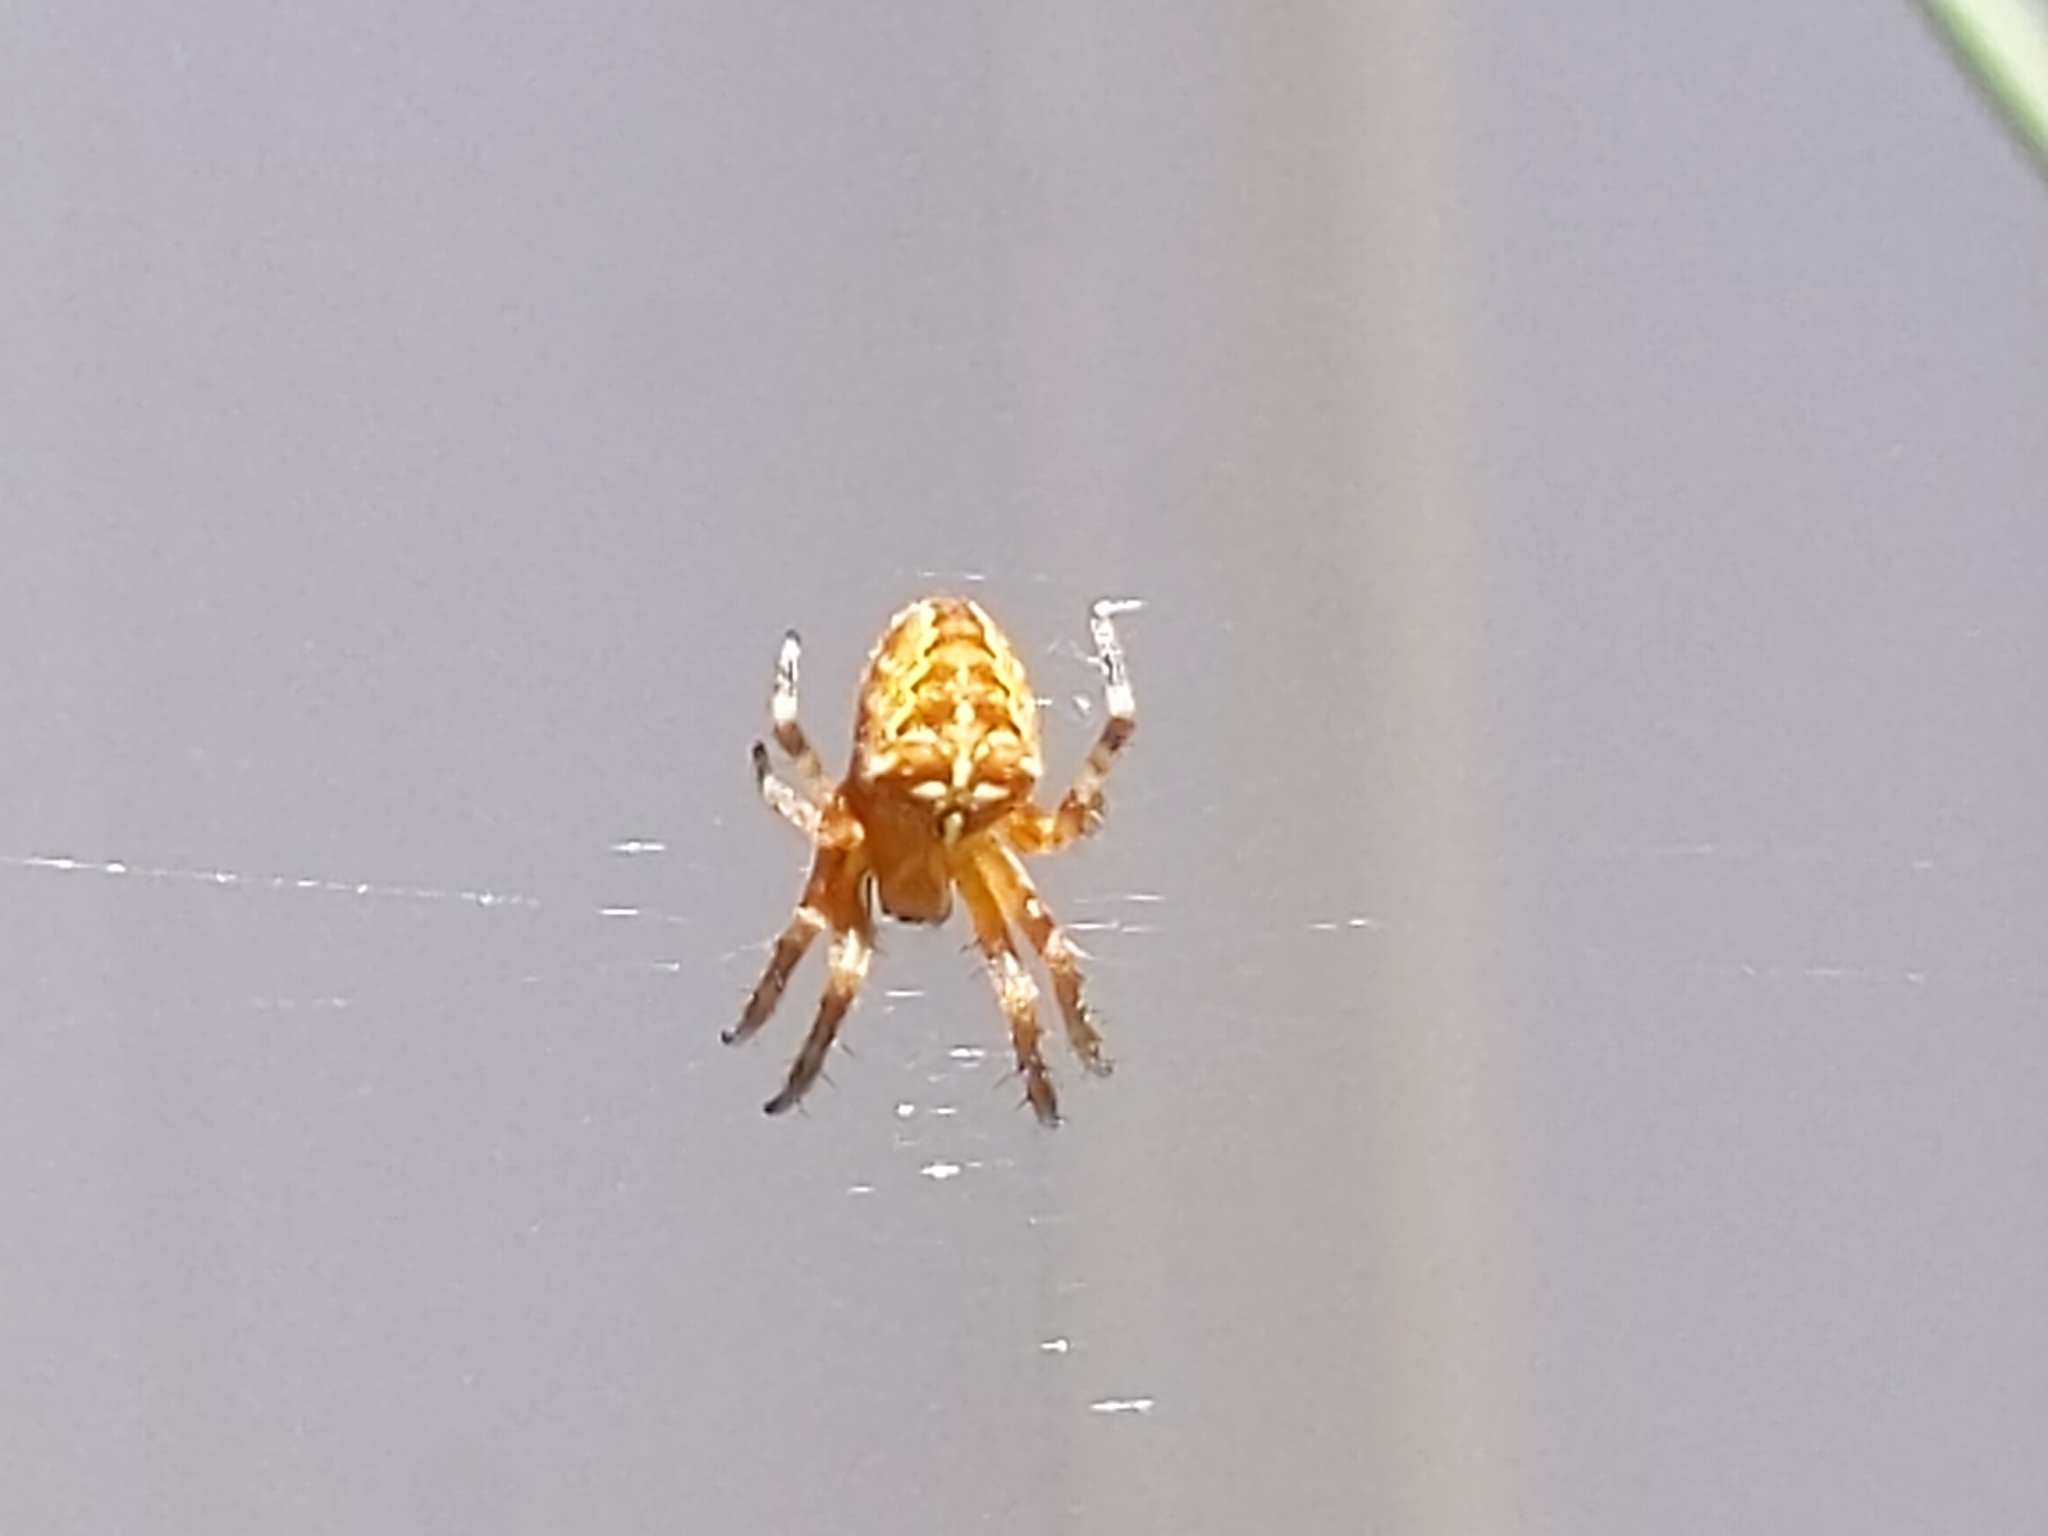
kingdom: Animalia
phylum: Arthropoda
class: Arachnida
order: Araneae
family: Araneidae
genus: Araneus
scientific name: Araneus diadematus
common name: Cross orbweaver
